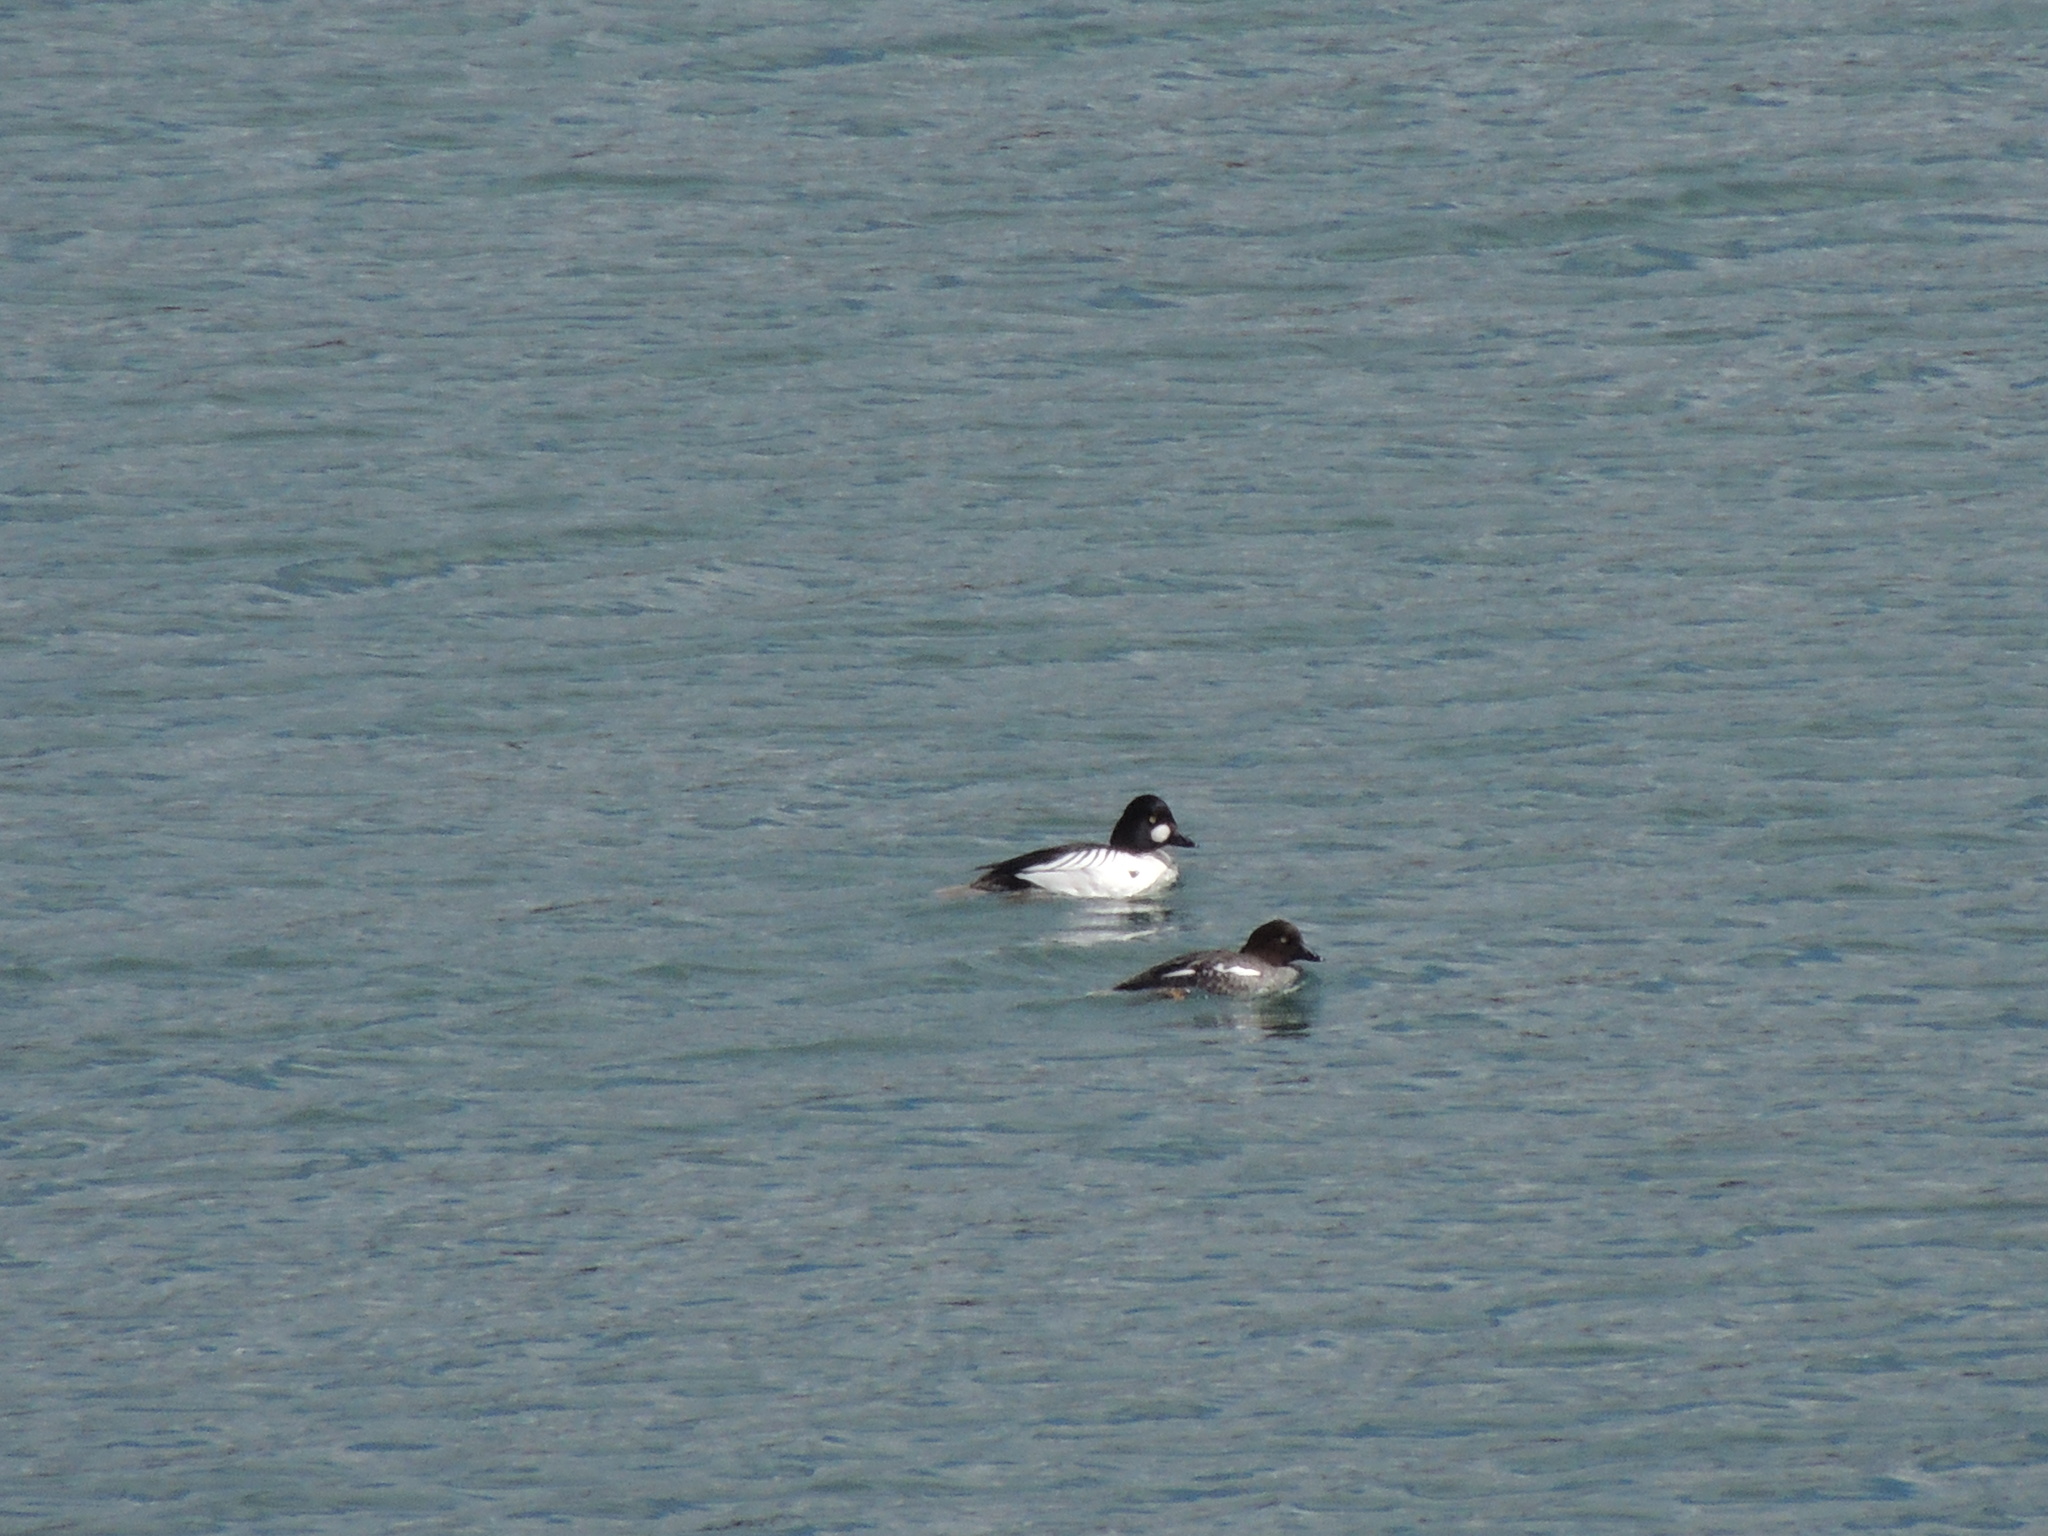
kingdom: Animalia
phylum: Chordata
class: Aves
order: Anseriformes
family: Anatidae
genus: Bucephala
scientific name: Bucephala clangula
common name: Common goldeneye
